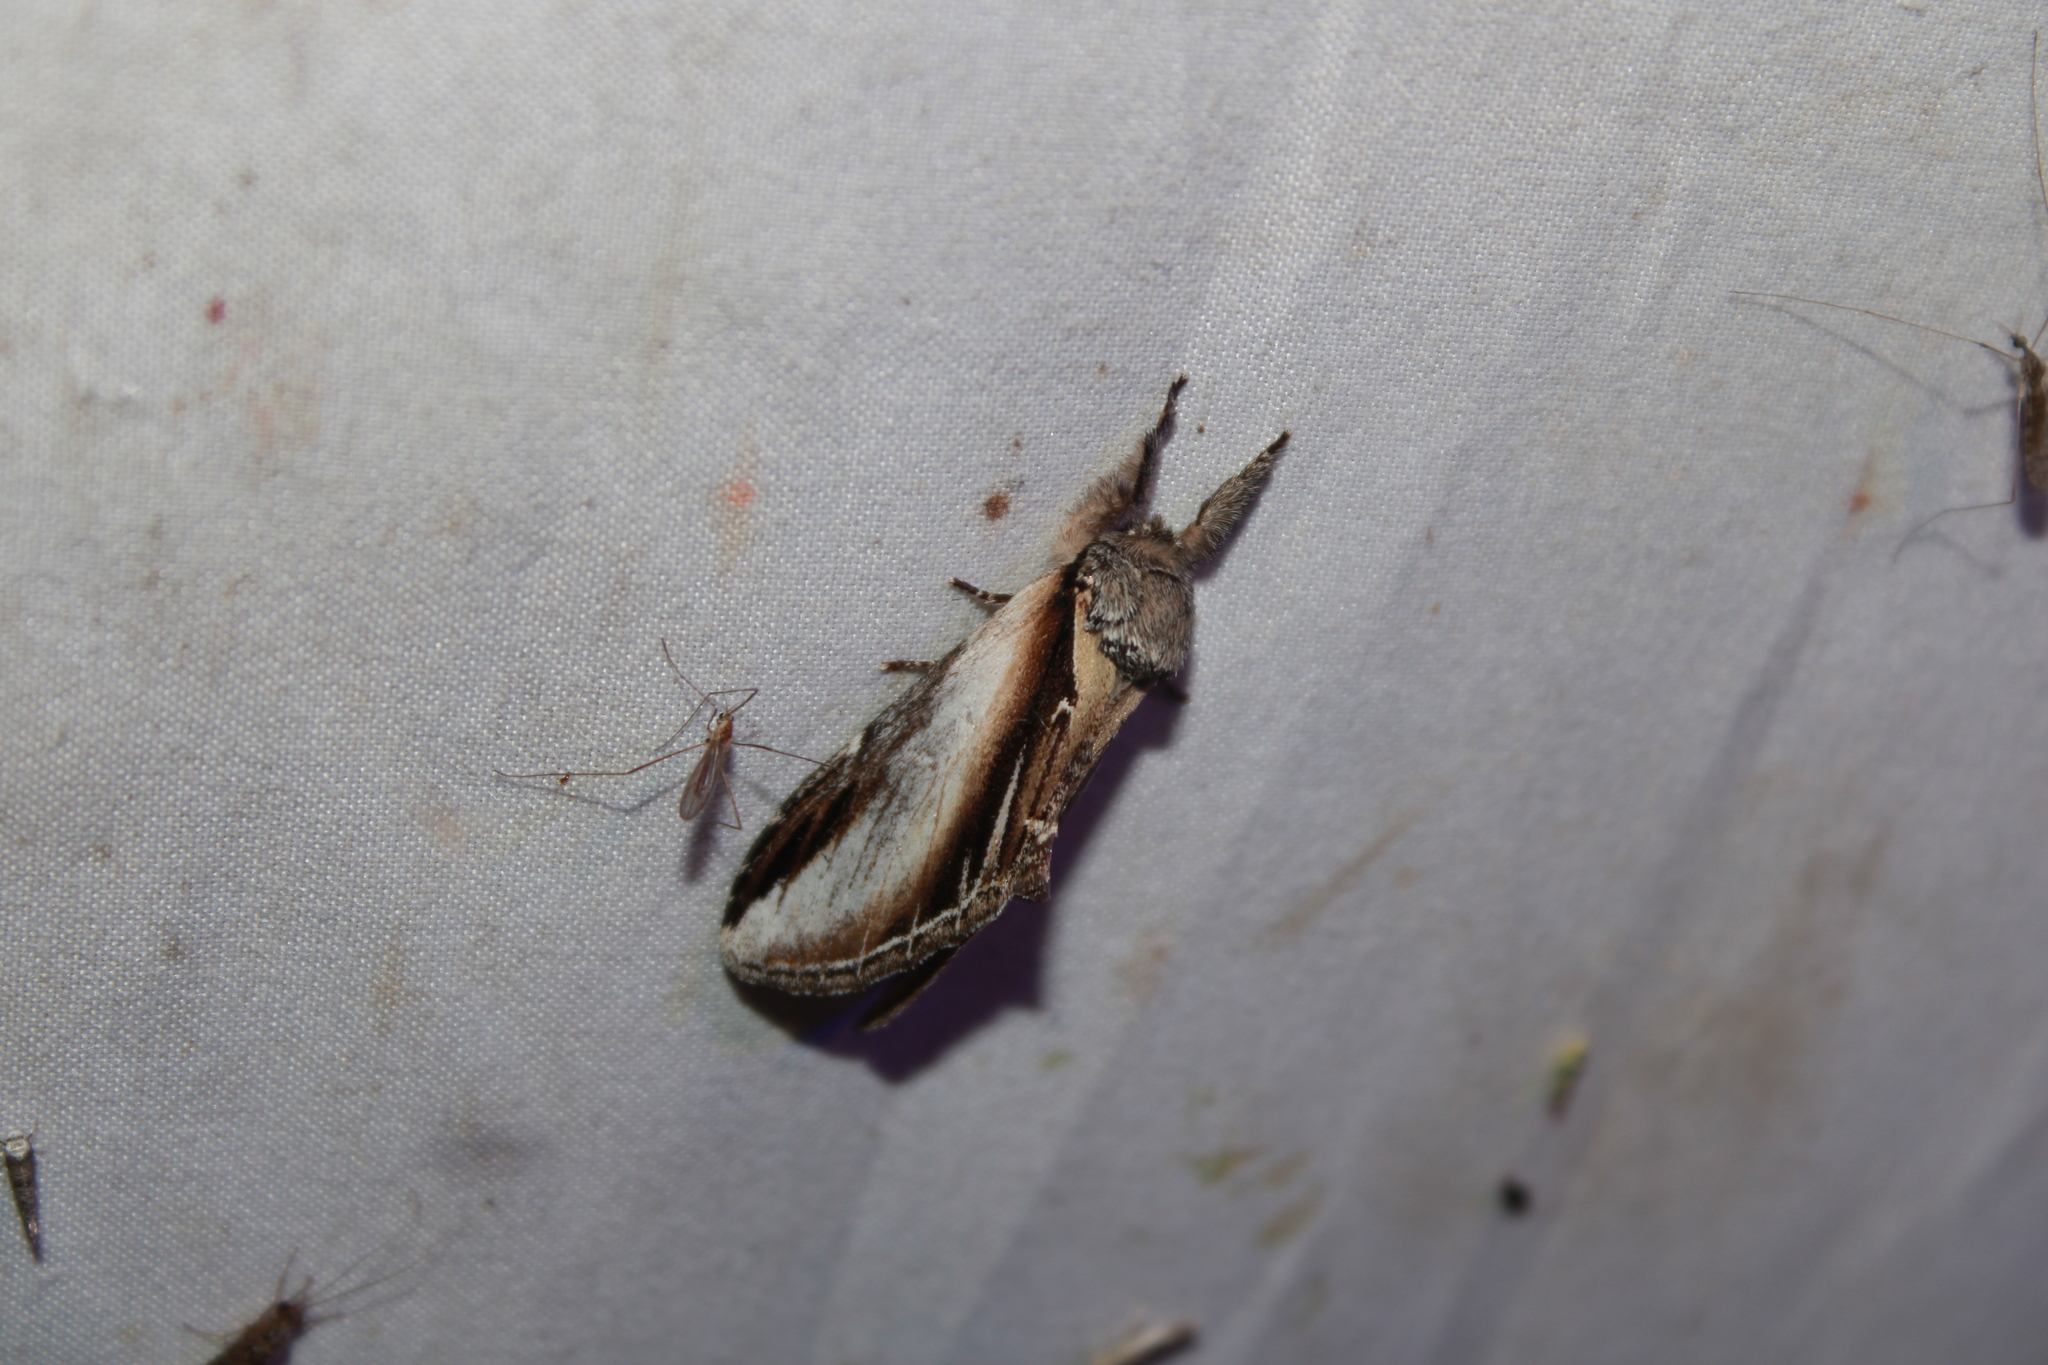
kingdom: Animalia
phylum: Arthropoda
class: Insecta
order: Lepidoptera
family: Notodontidae
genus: Pheosia
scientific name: Pheosia rimosa
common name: Black-rimmed prominent
